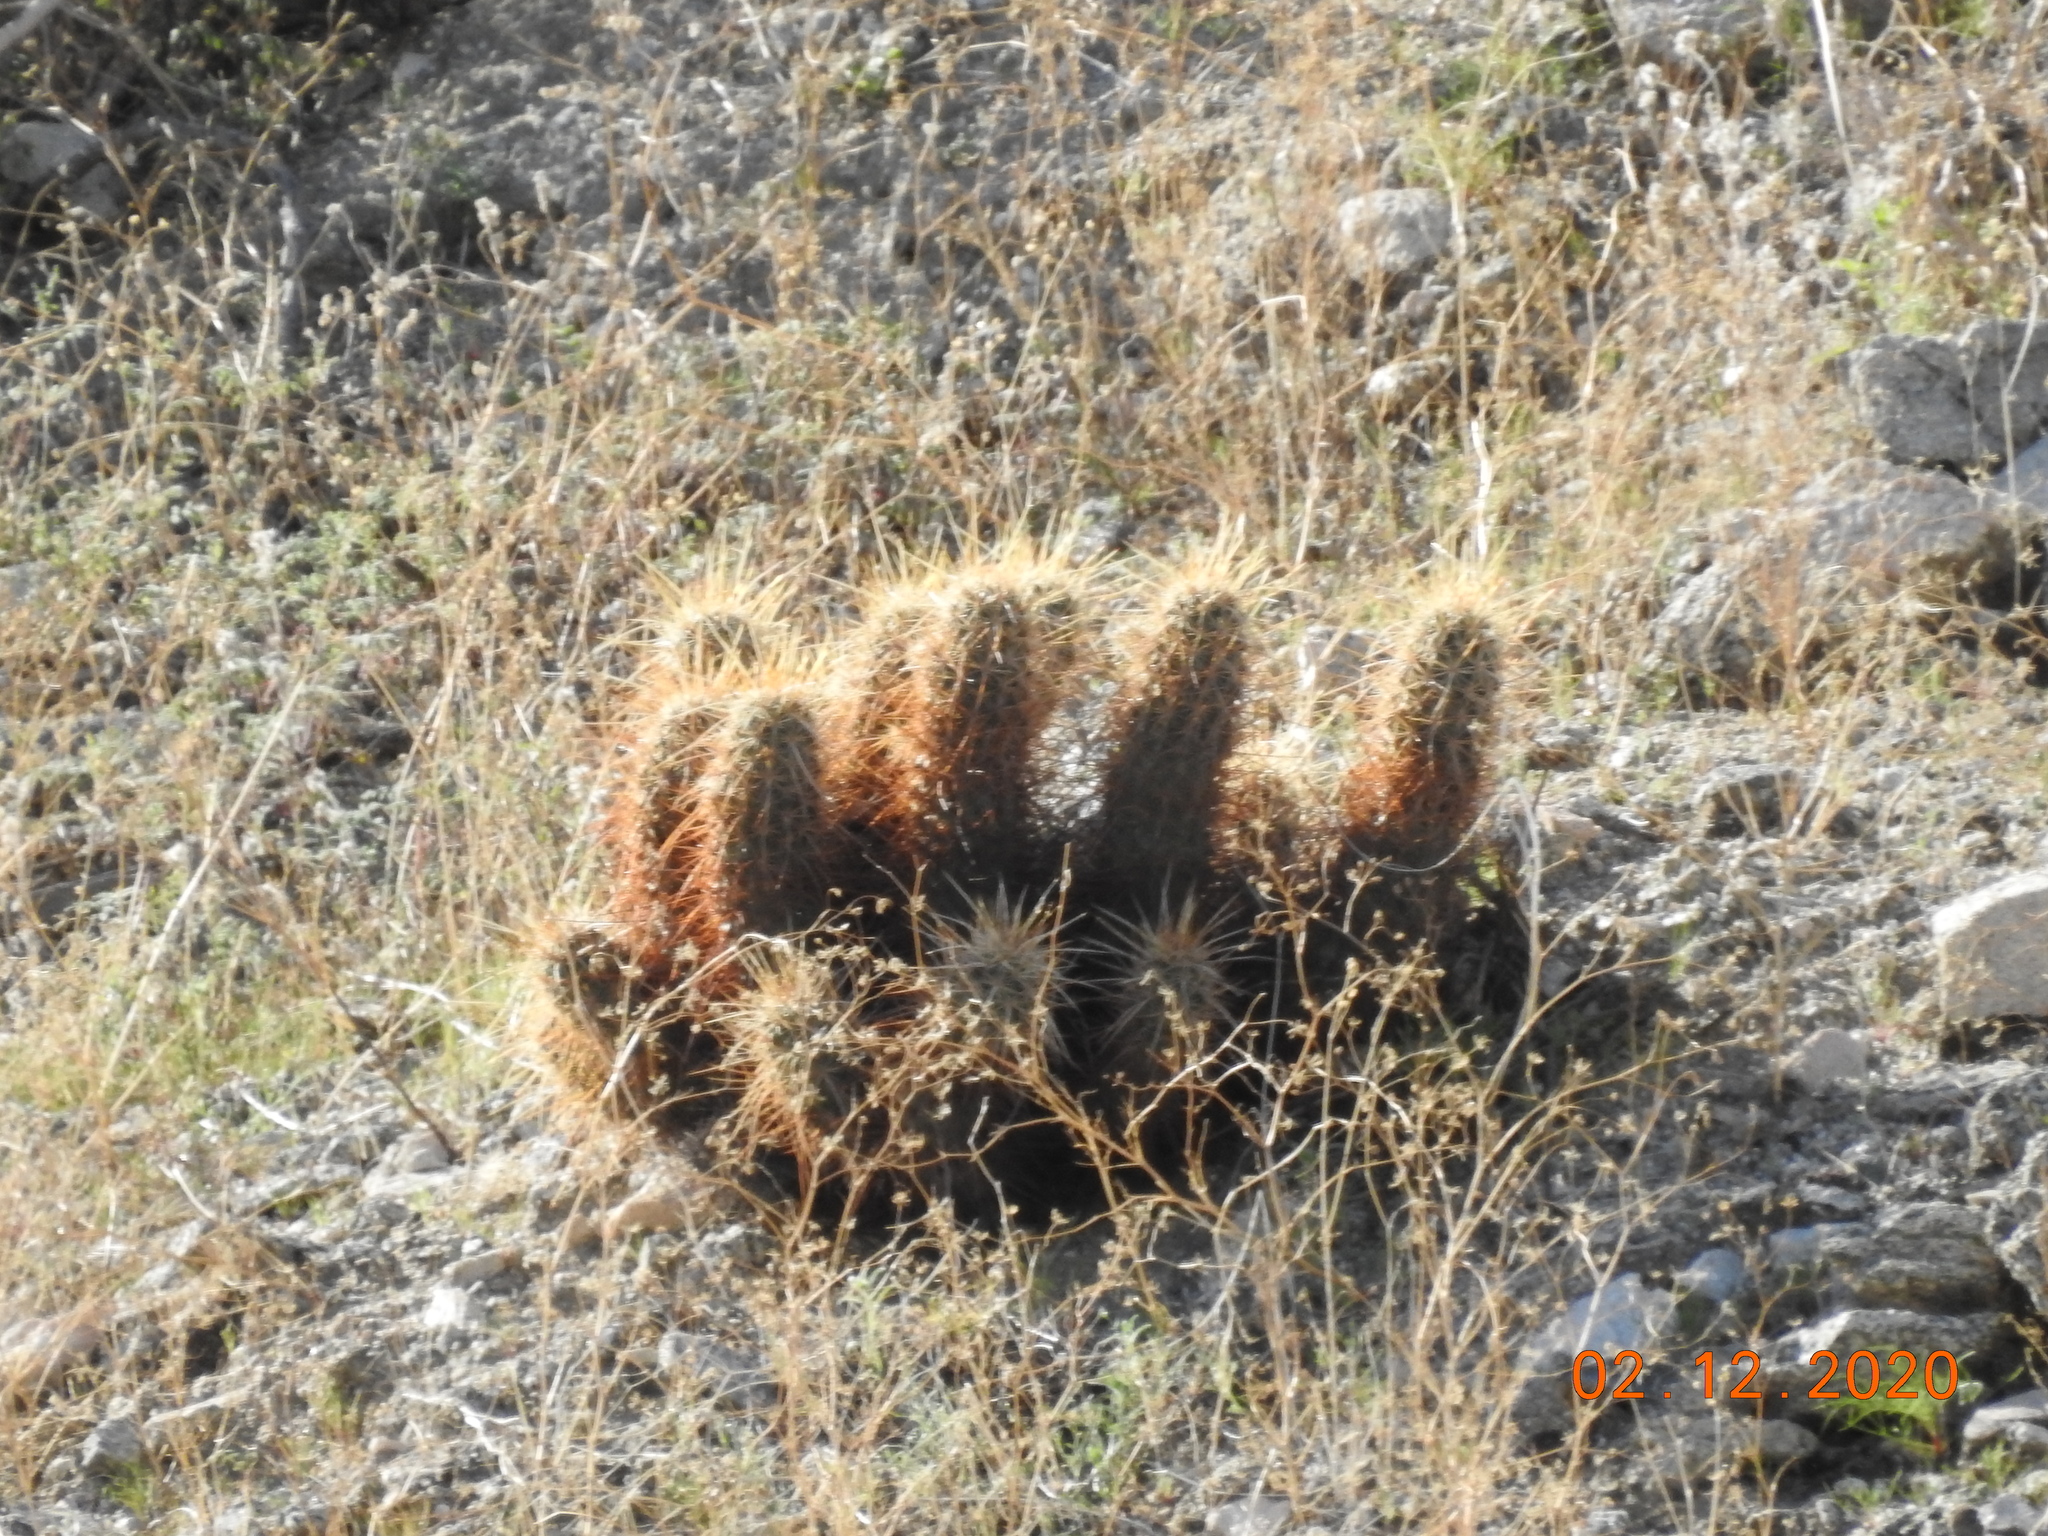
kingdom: Plantae
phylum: Tracheophyta
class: Magnoliopsida
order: Caryophyllales
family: Cactaceae
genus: Echinocereus
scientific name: Echinocereus engelmannii
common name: Engelmann's hedgehog cactus
